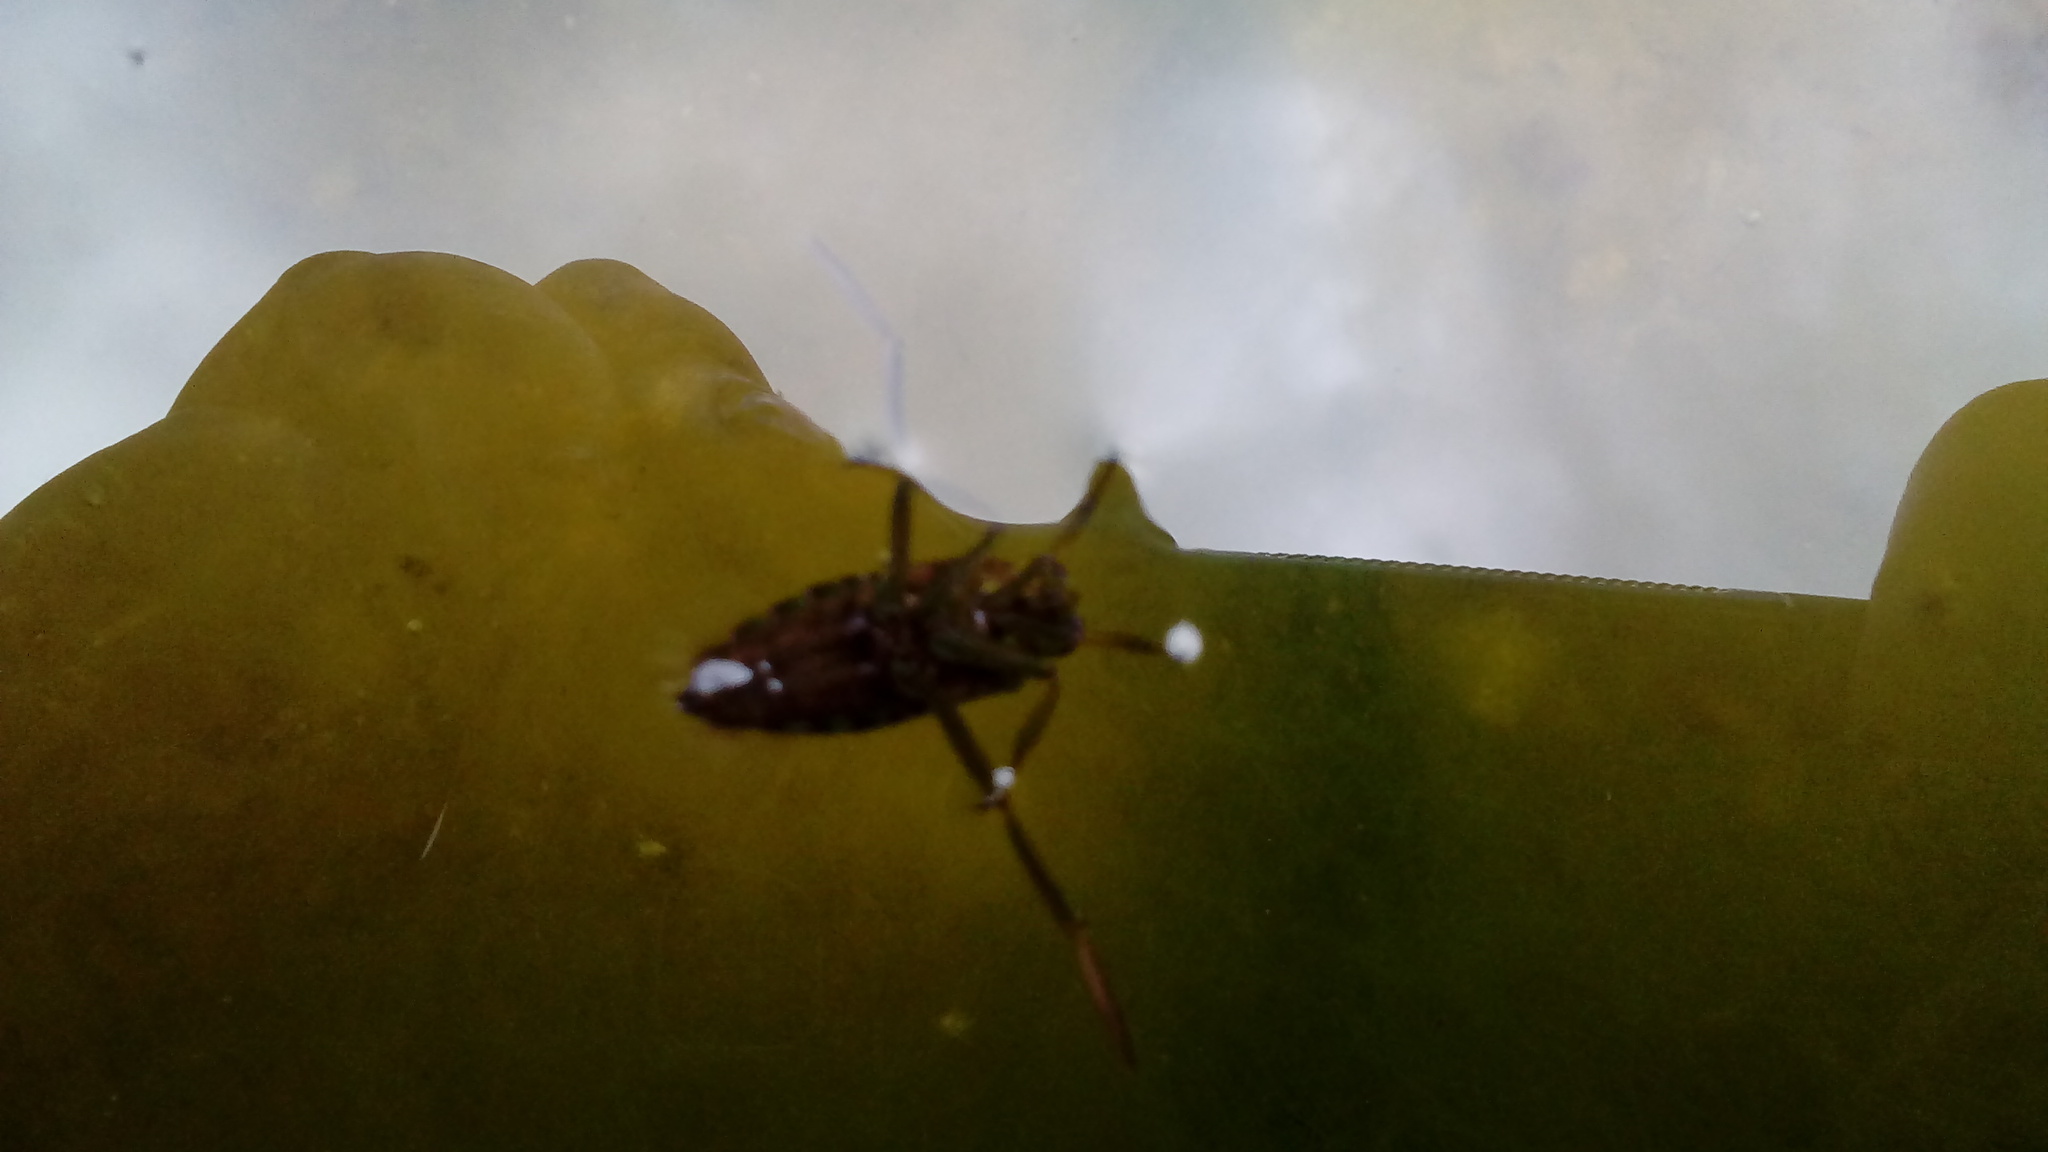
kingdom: Animalia
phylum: Arthropoda
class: Insecta
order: Hemiptera
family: Notonectidae
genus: Notonecta
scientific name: Notonecta
